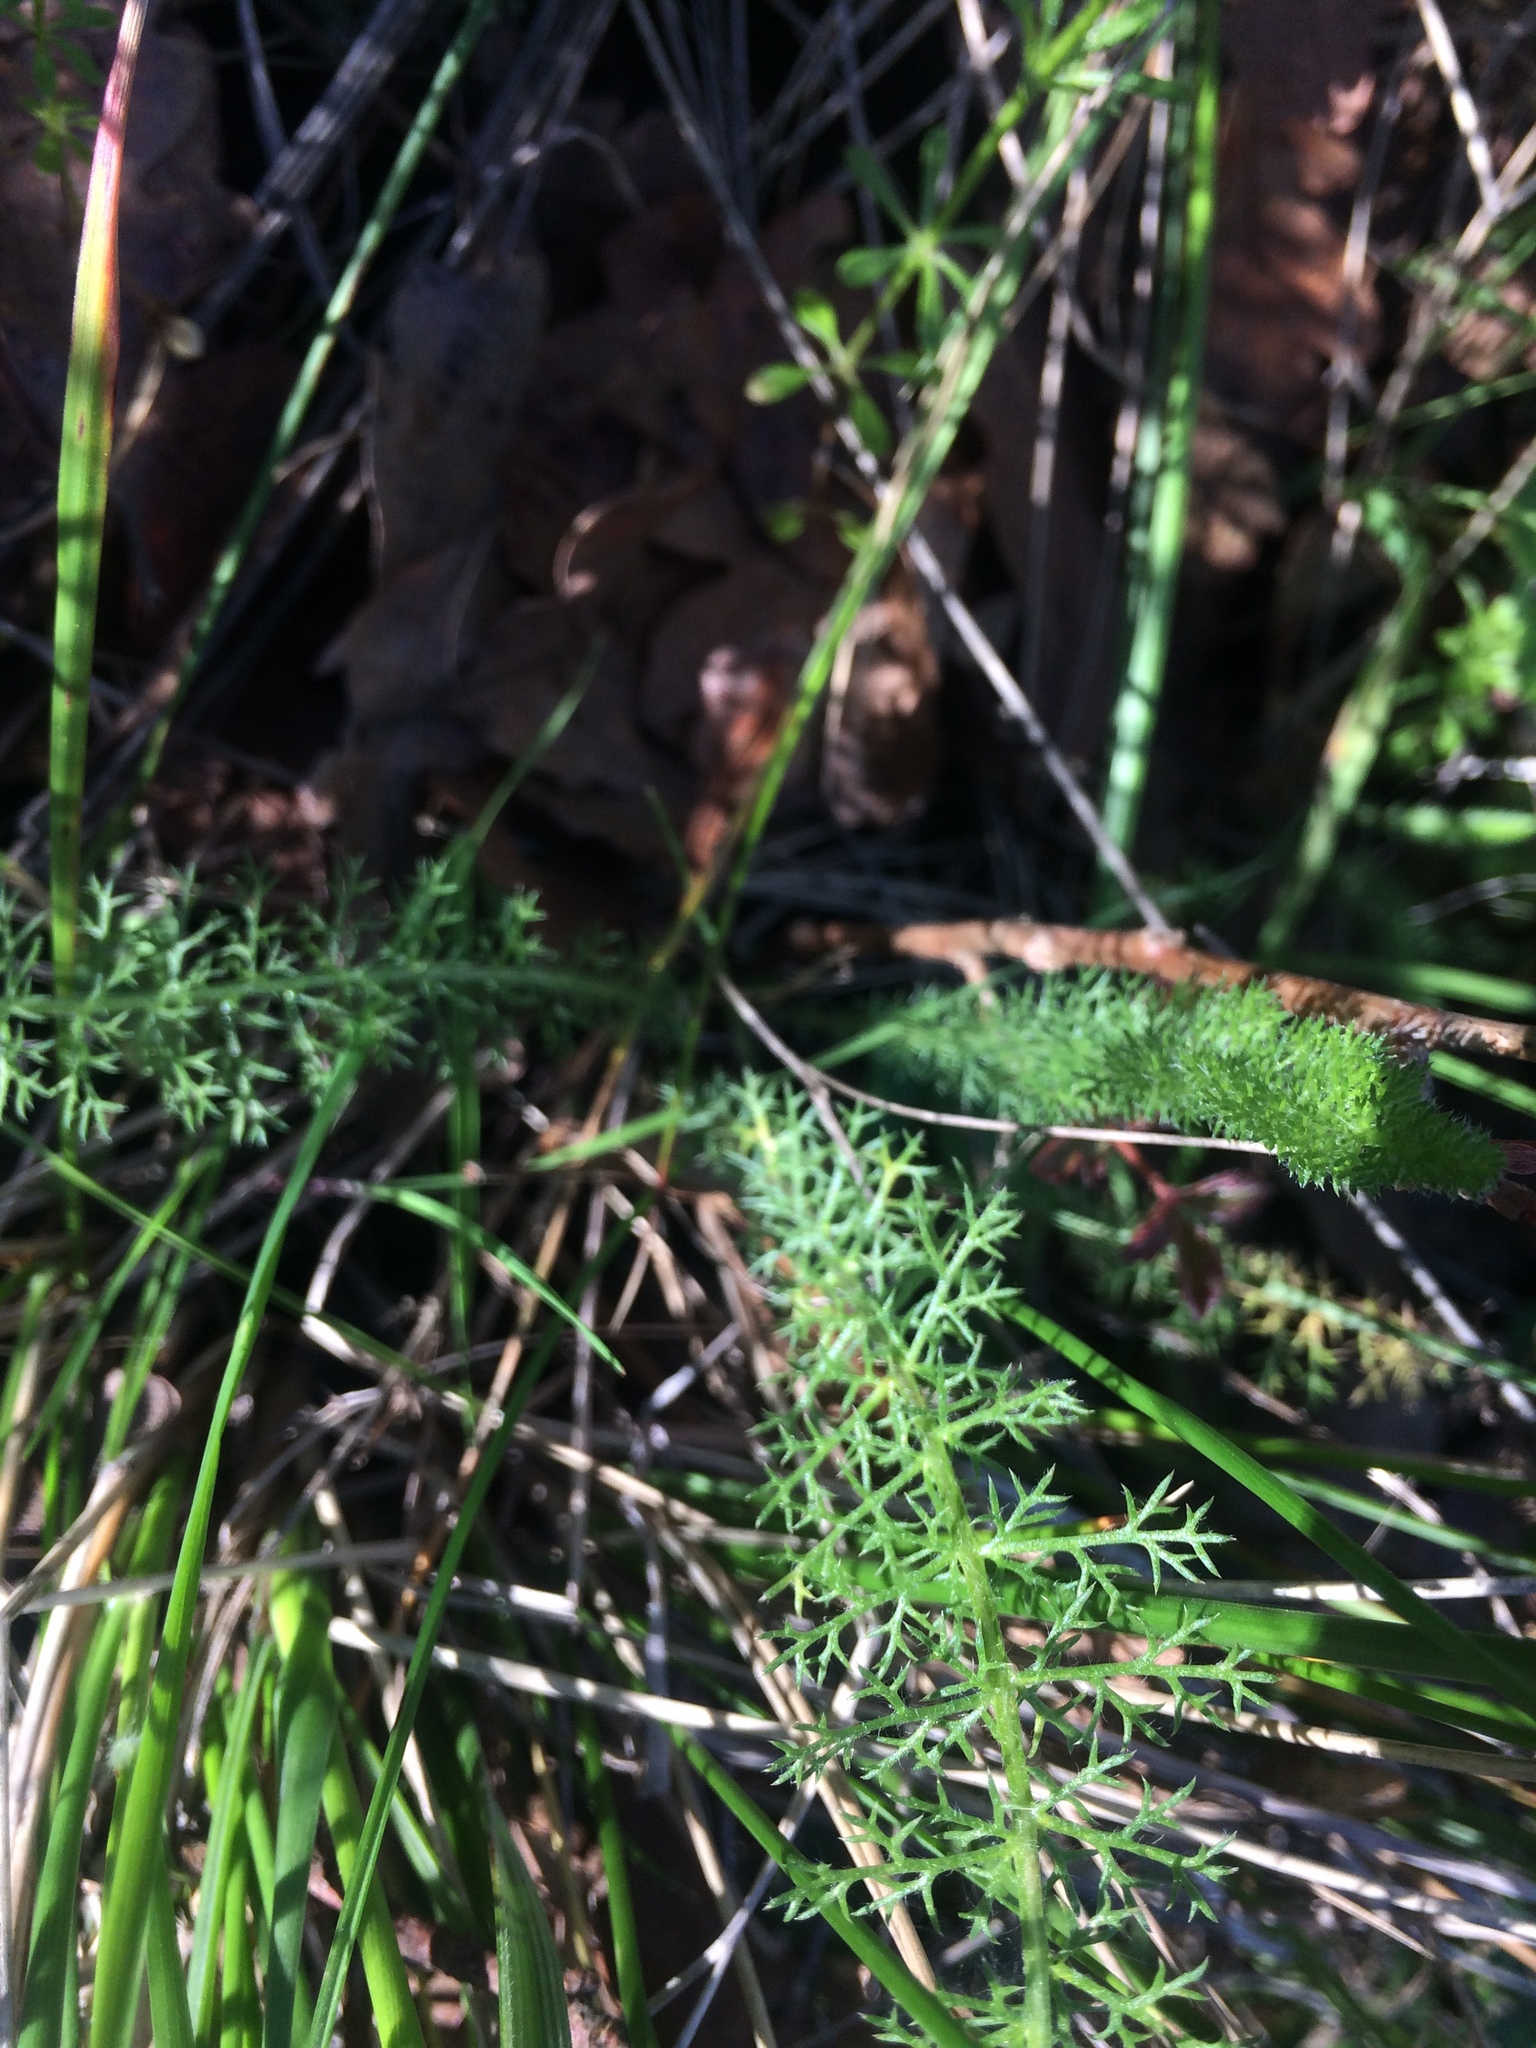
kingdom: Plantae
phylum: Tracheophyta
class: Magnoliopsida
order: Asterales
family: Asteraceae
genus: Achillea
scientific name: Achillea millefolium
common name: Yarrow
